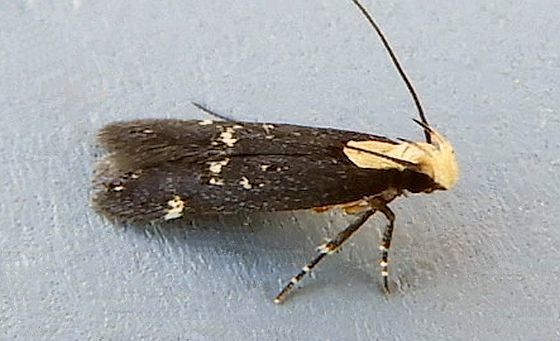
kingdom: Animalia
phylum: Arthropoda
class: Insecta
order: Lepidoptera
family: Gelechiidae
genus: Chionodes
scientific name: Chionodes phalacra
